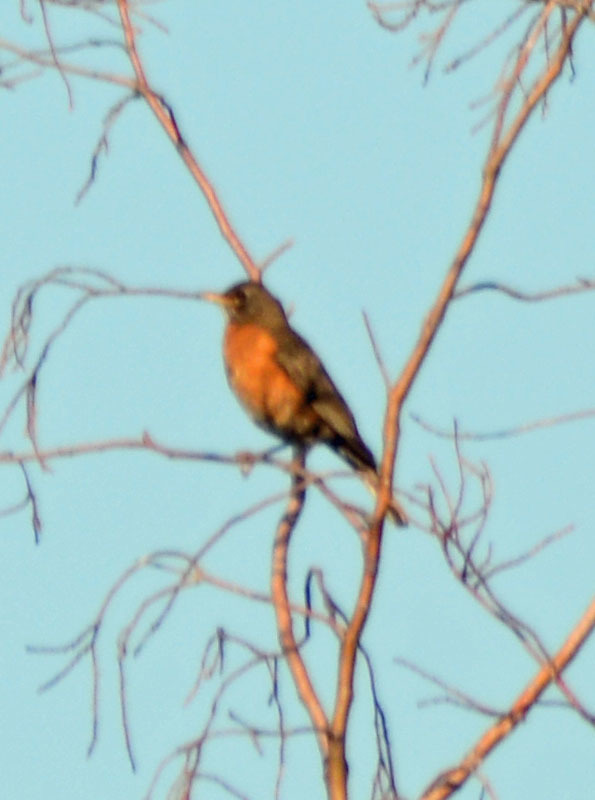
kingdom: Animalia
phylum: Chordata
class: Aves
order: Passeriformes
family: Turdidae
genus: Turdus
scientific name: Turdus migratorius
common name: American robin
